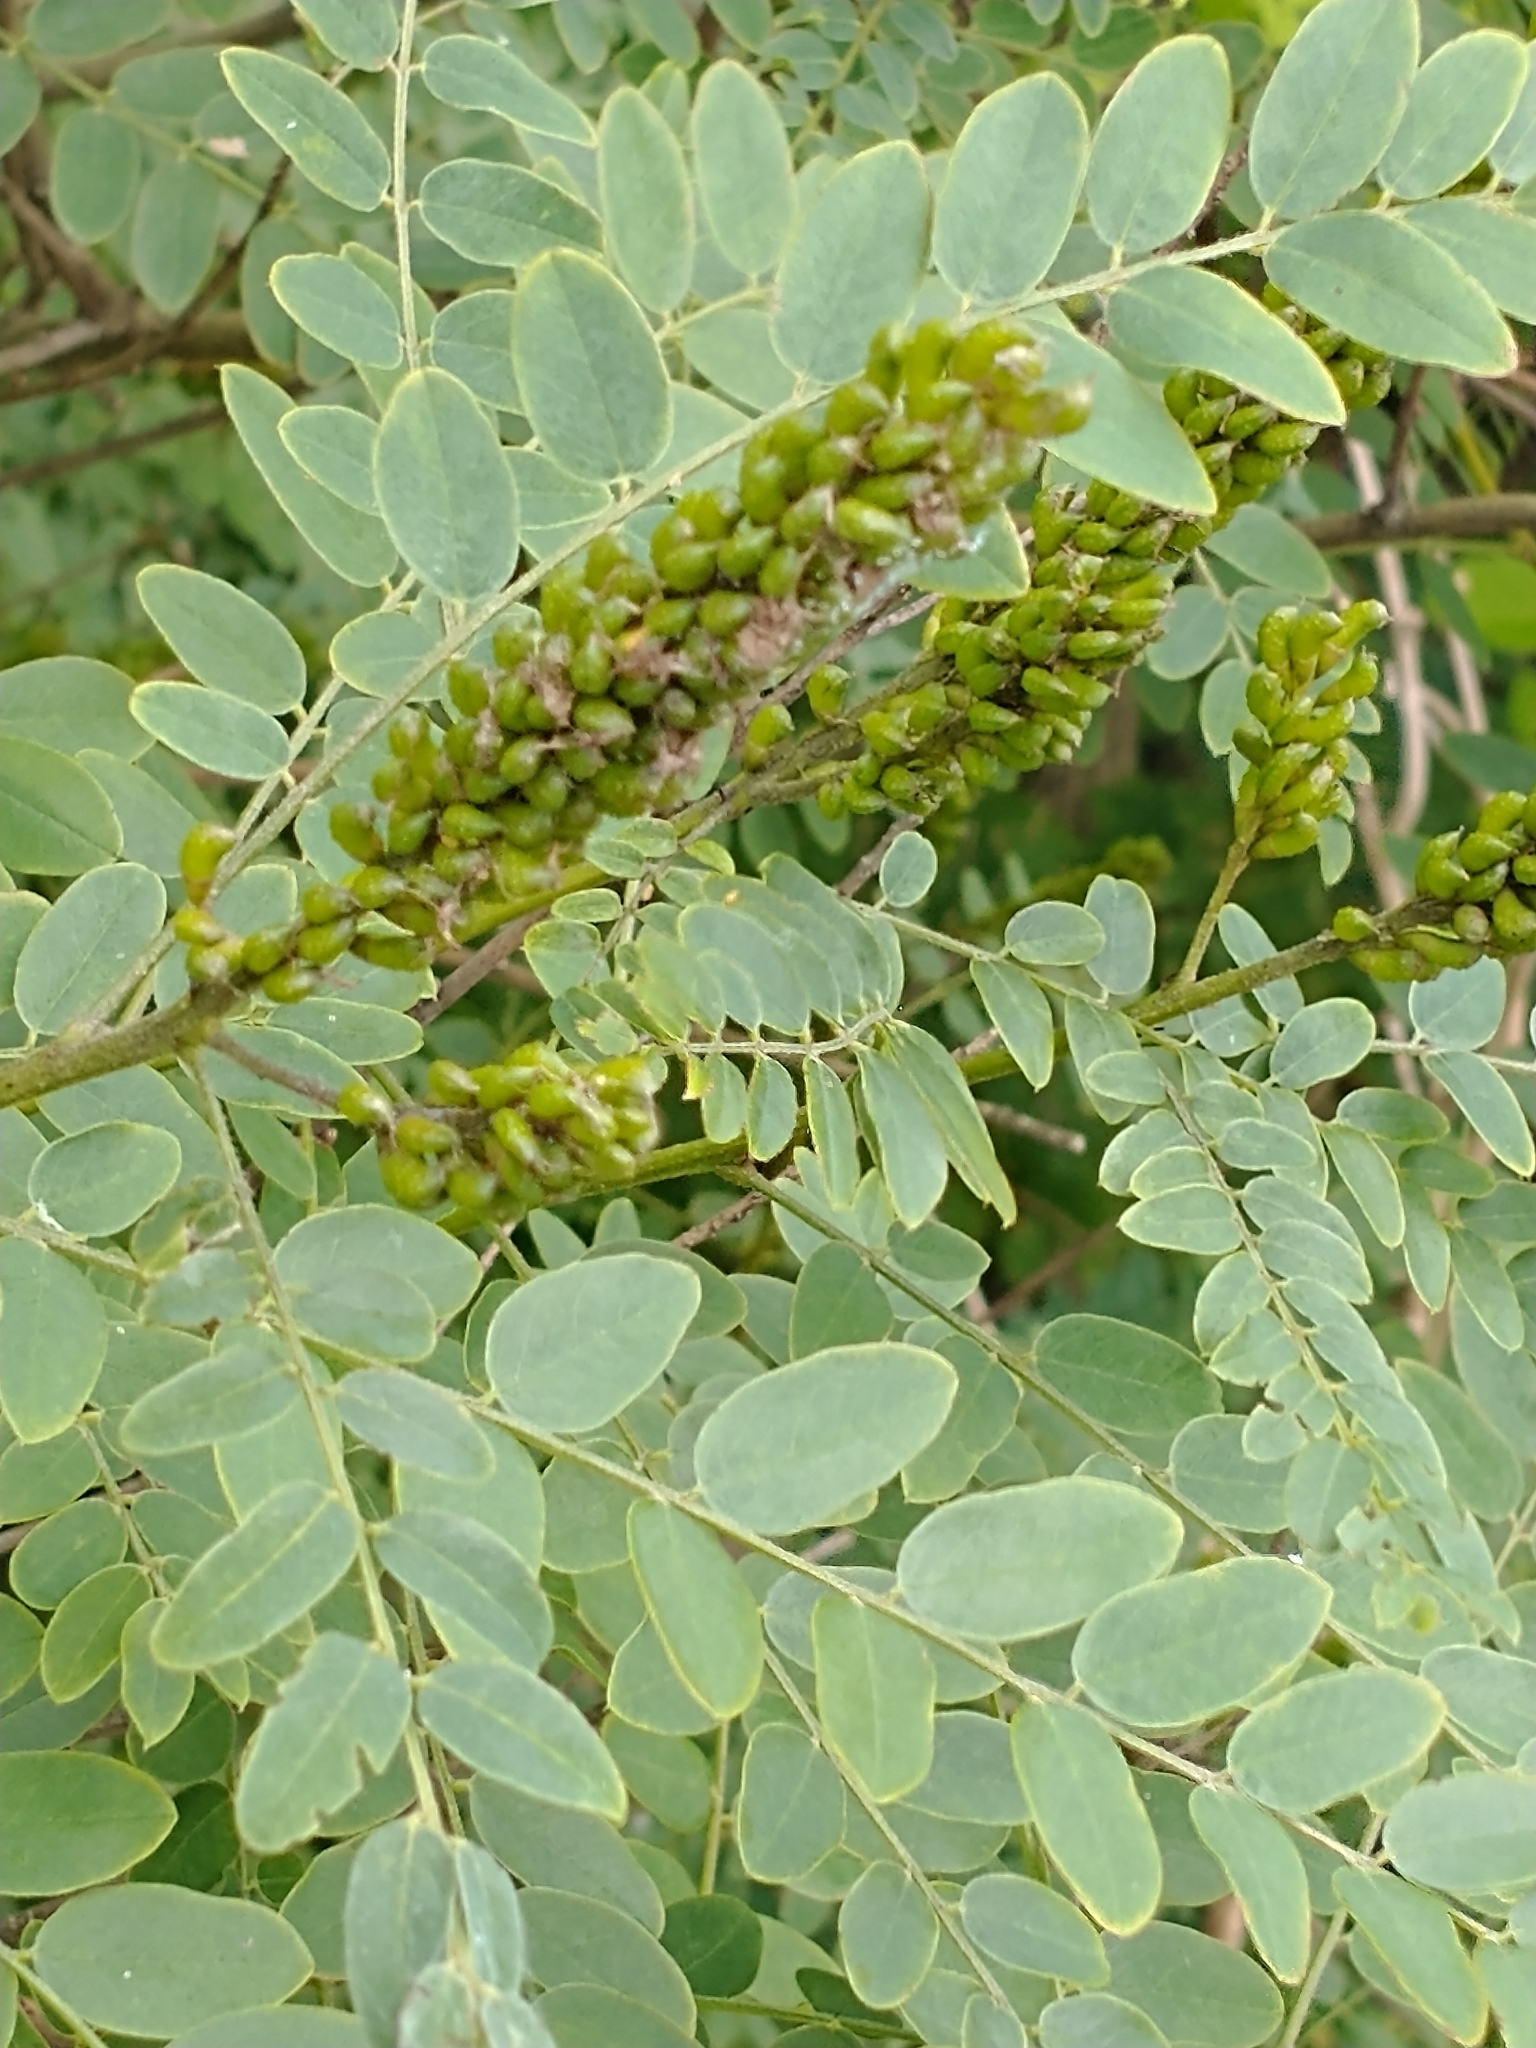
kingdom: Plantae
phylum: Tracheophyta
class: Magnoliopsida
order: Fabales
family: Fabaceae
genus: Amorpha
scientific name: Amorpha fruticosa
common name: False indigo
